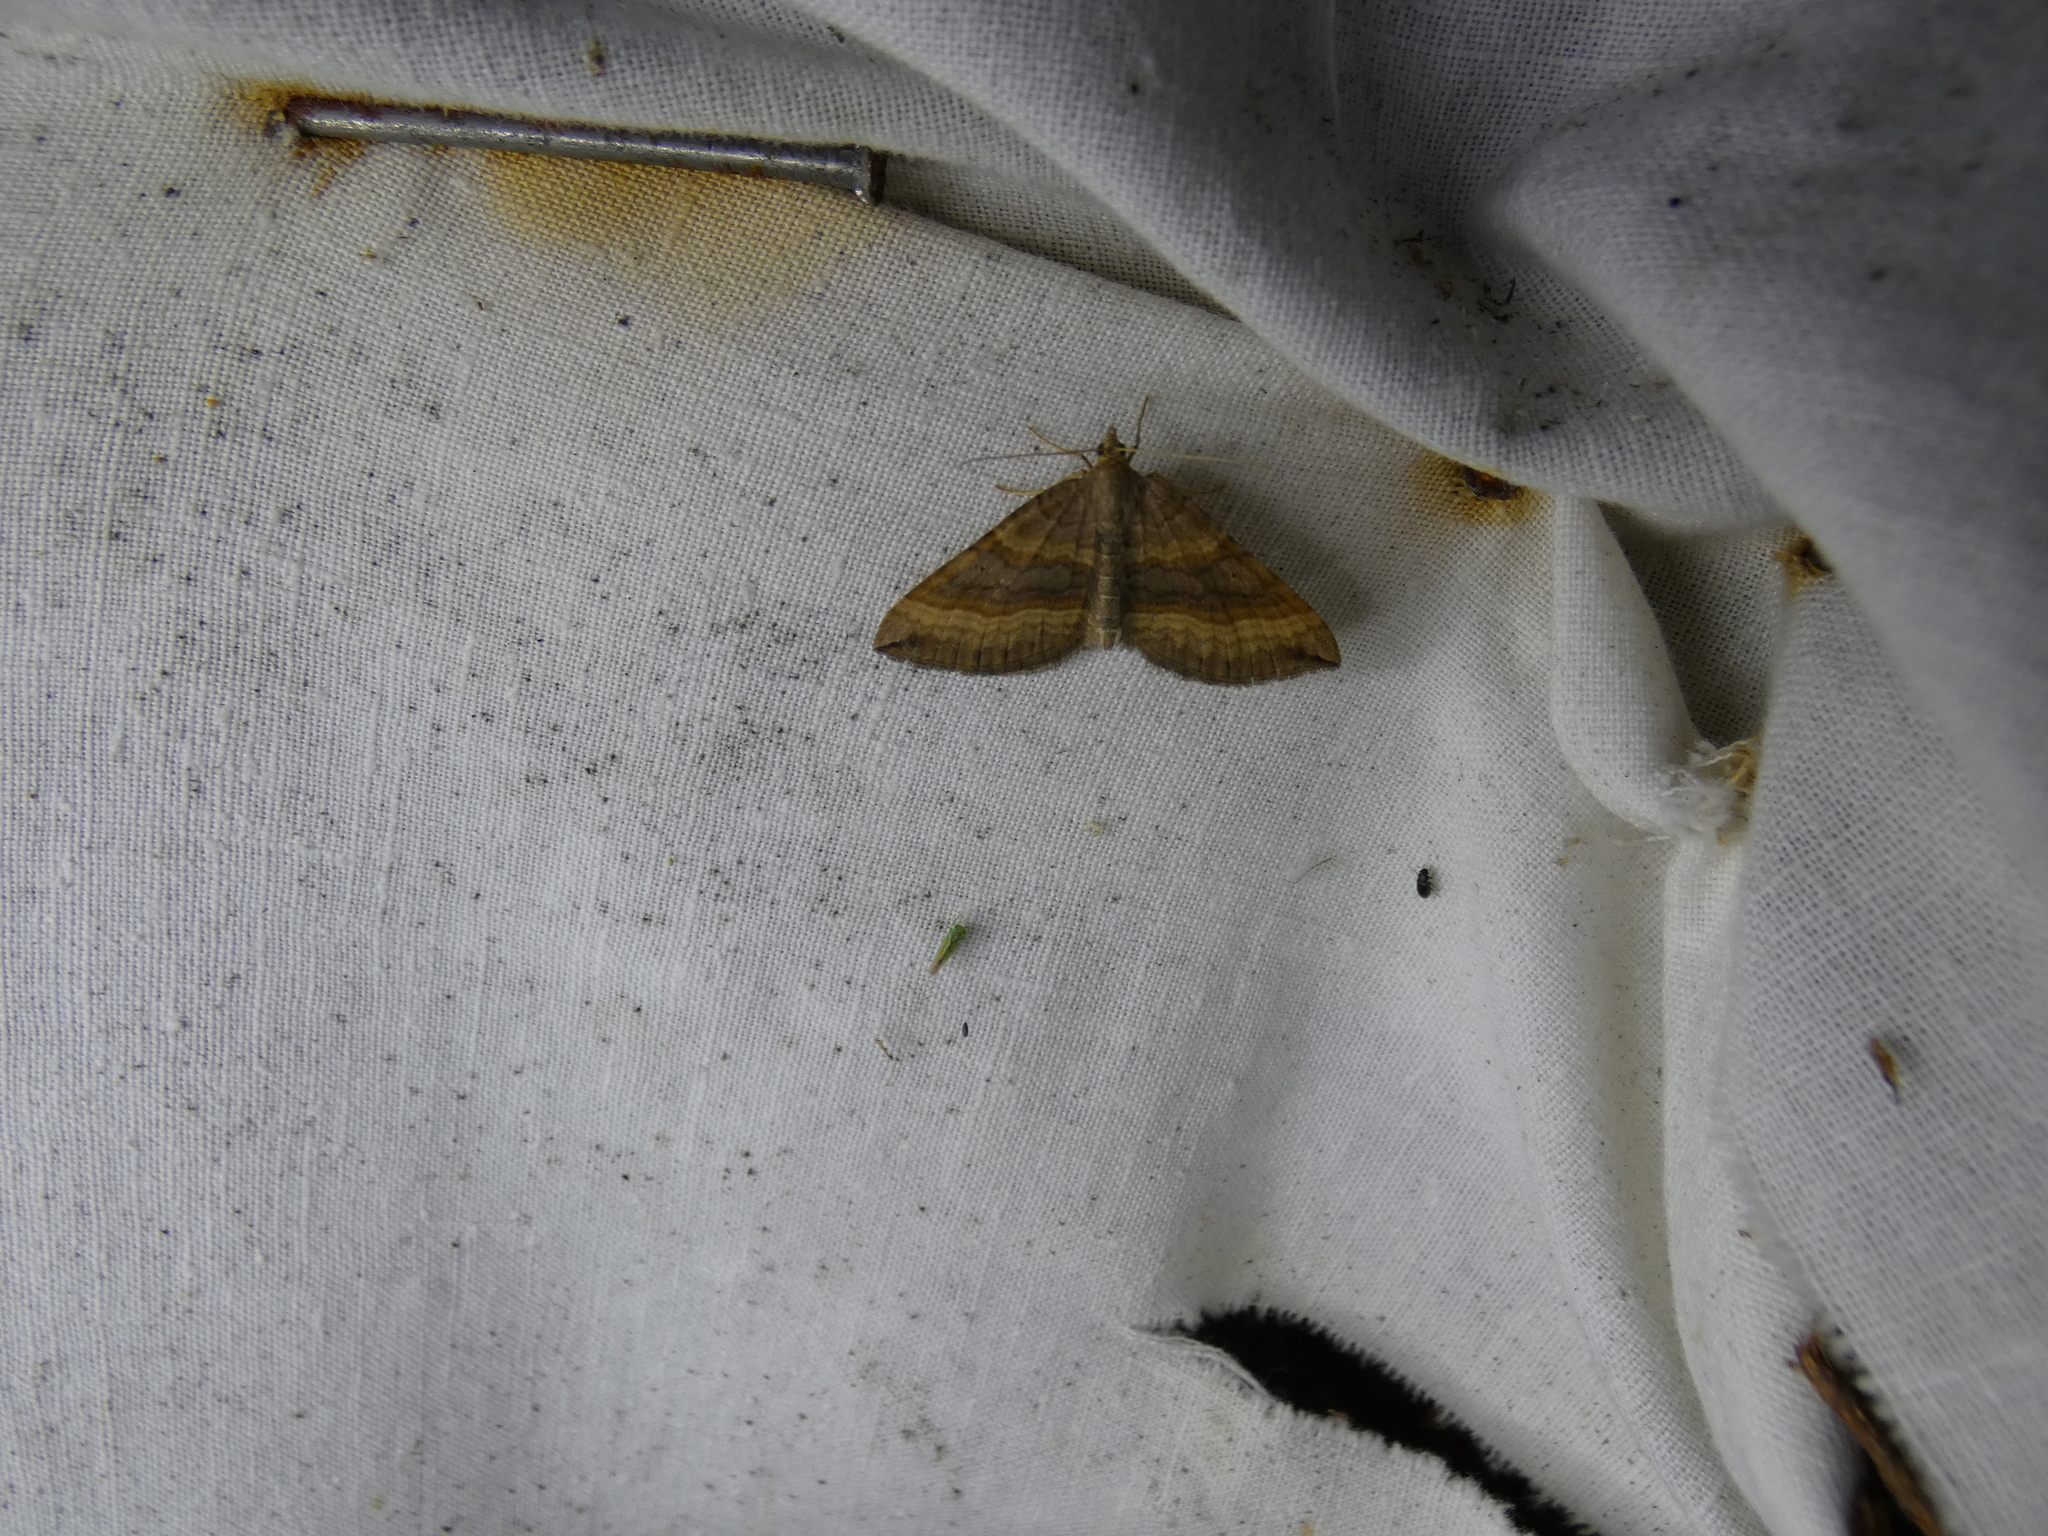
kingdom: Animalia
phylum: Arthropoda
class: Insecta
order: Lepidoptera
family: Geometridae
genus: Scotopteryx
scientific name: Scotopteryx chenopodiata
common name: Shaded broad-bar
